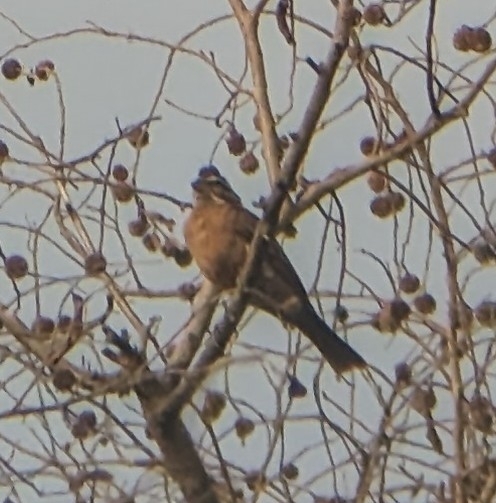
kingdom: Animalia
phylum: Chordata
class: Aves
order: Passeriformes
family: Emberizidae
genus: Emberiza
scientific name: Emberiza goslingi
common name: Gosling's bunting
